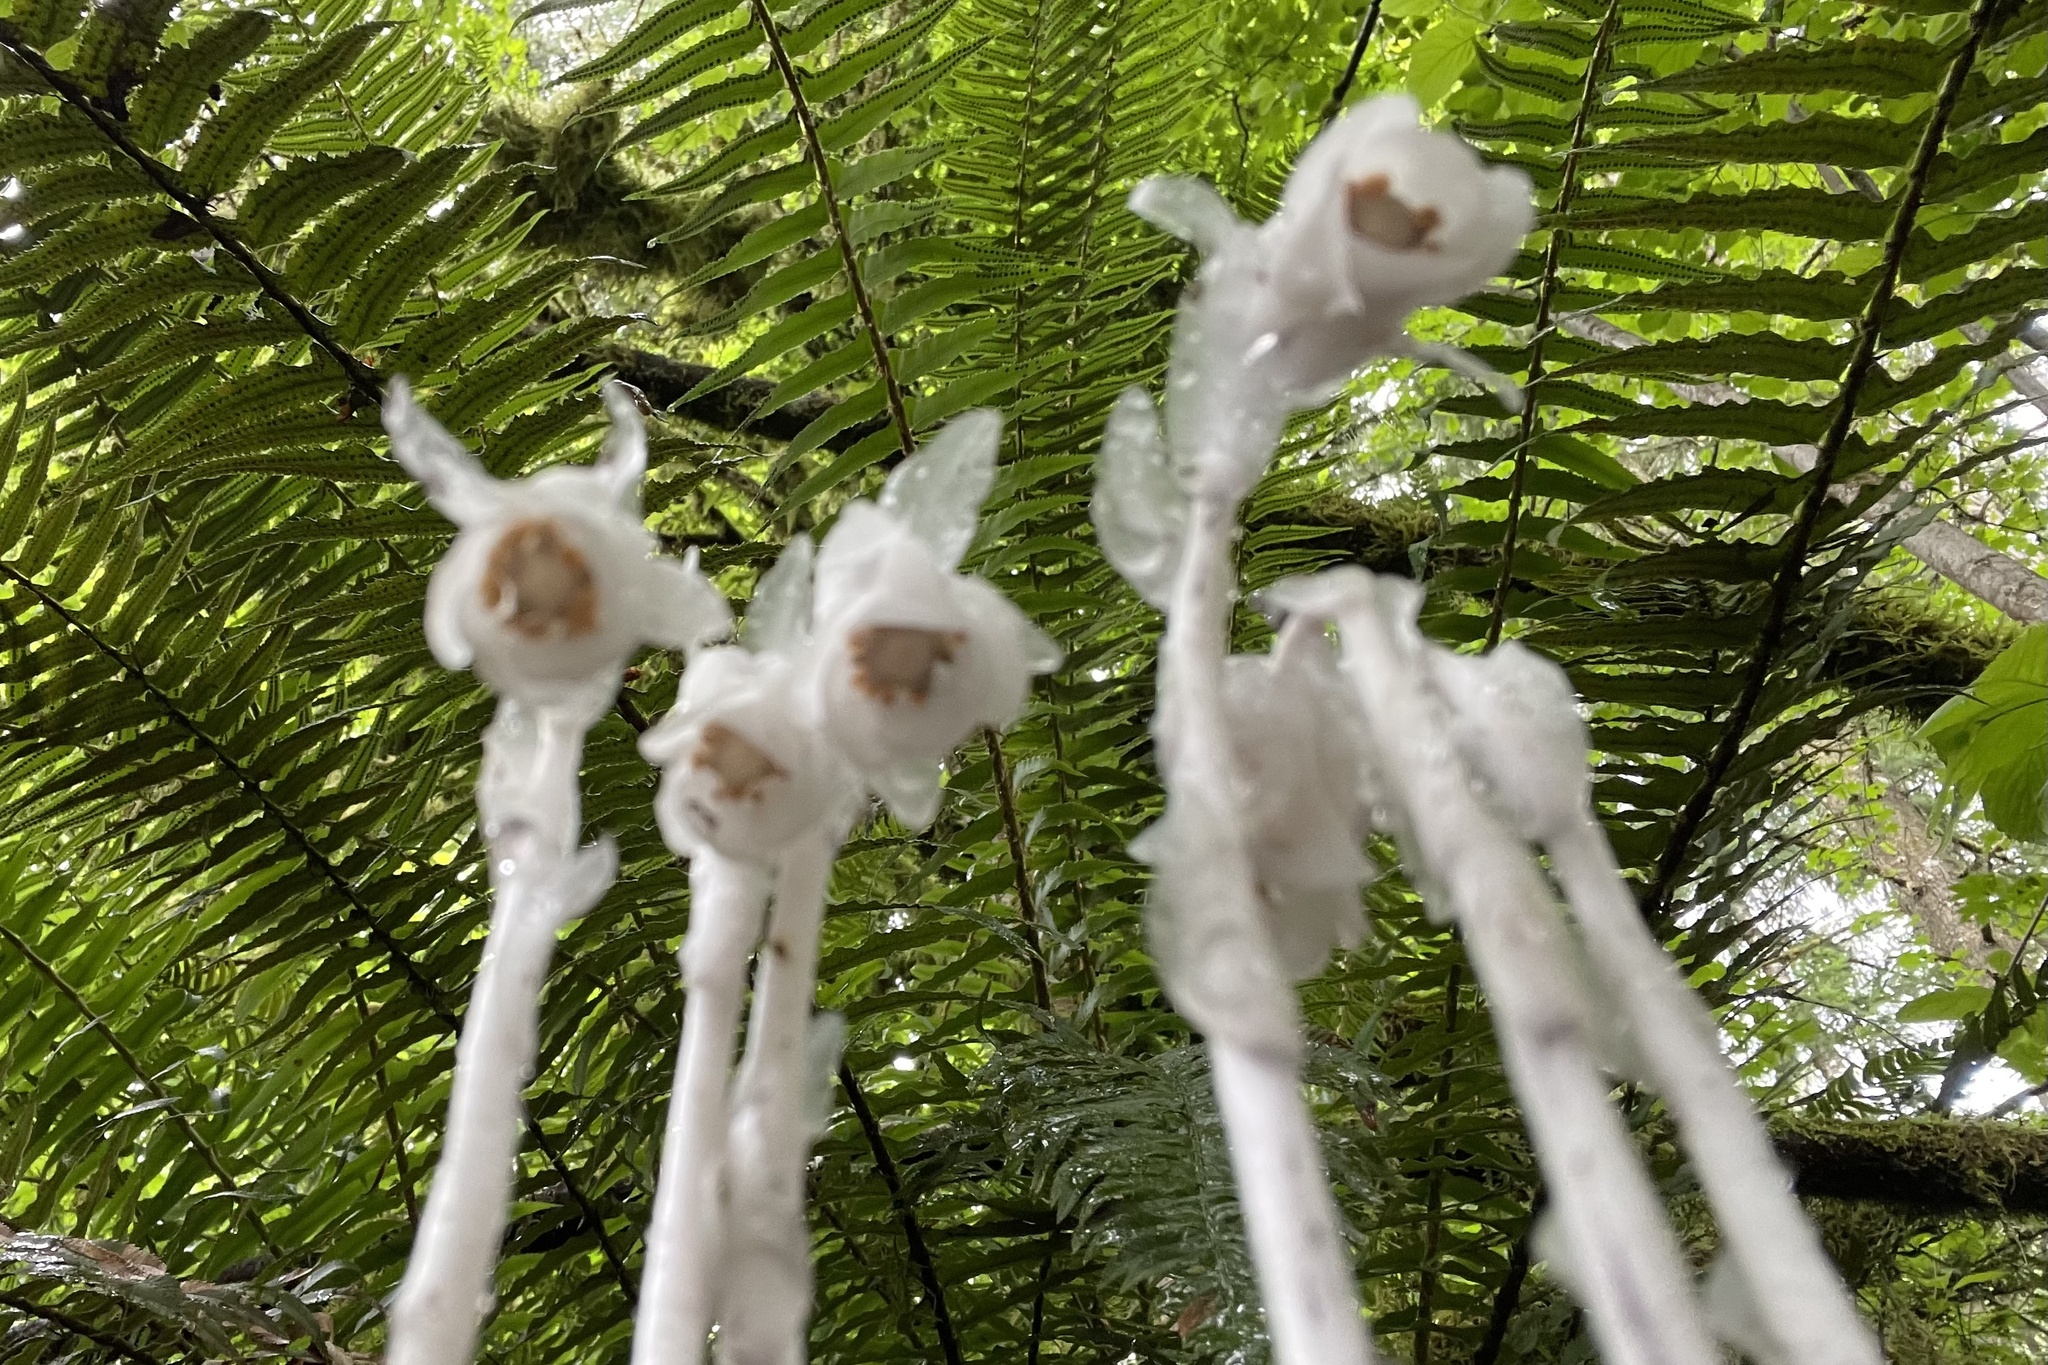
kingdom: Plantae
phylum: Tracheophyta
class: Magnoliopsida
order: Ericales
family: Ericaceae
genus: Monotropa
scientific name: Monotropa uniflora
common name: Convulsion root
